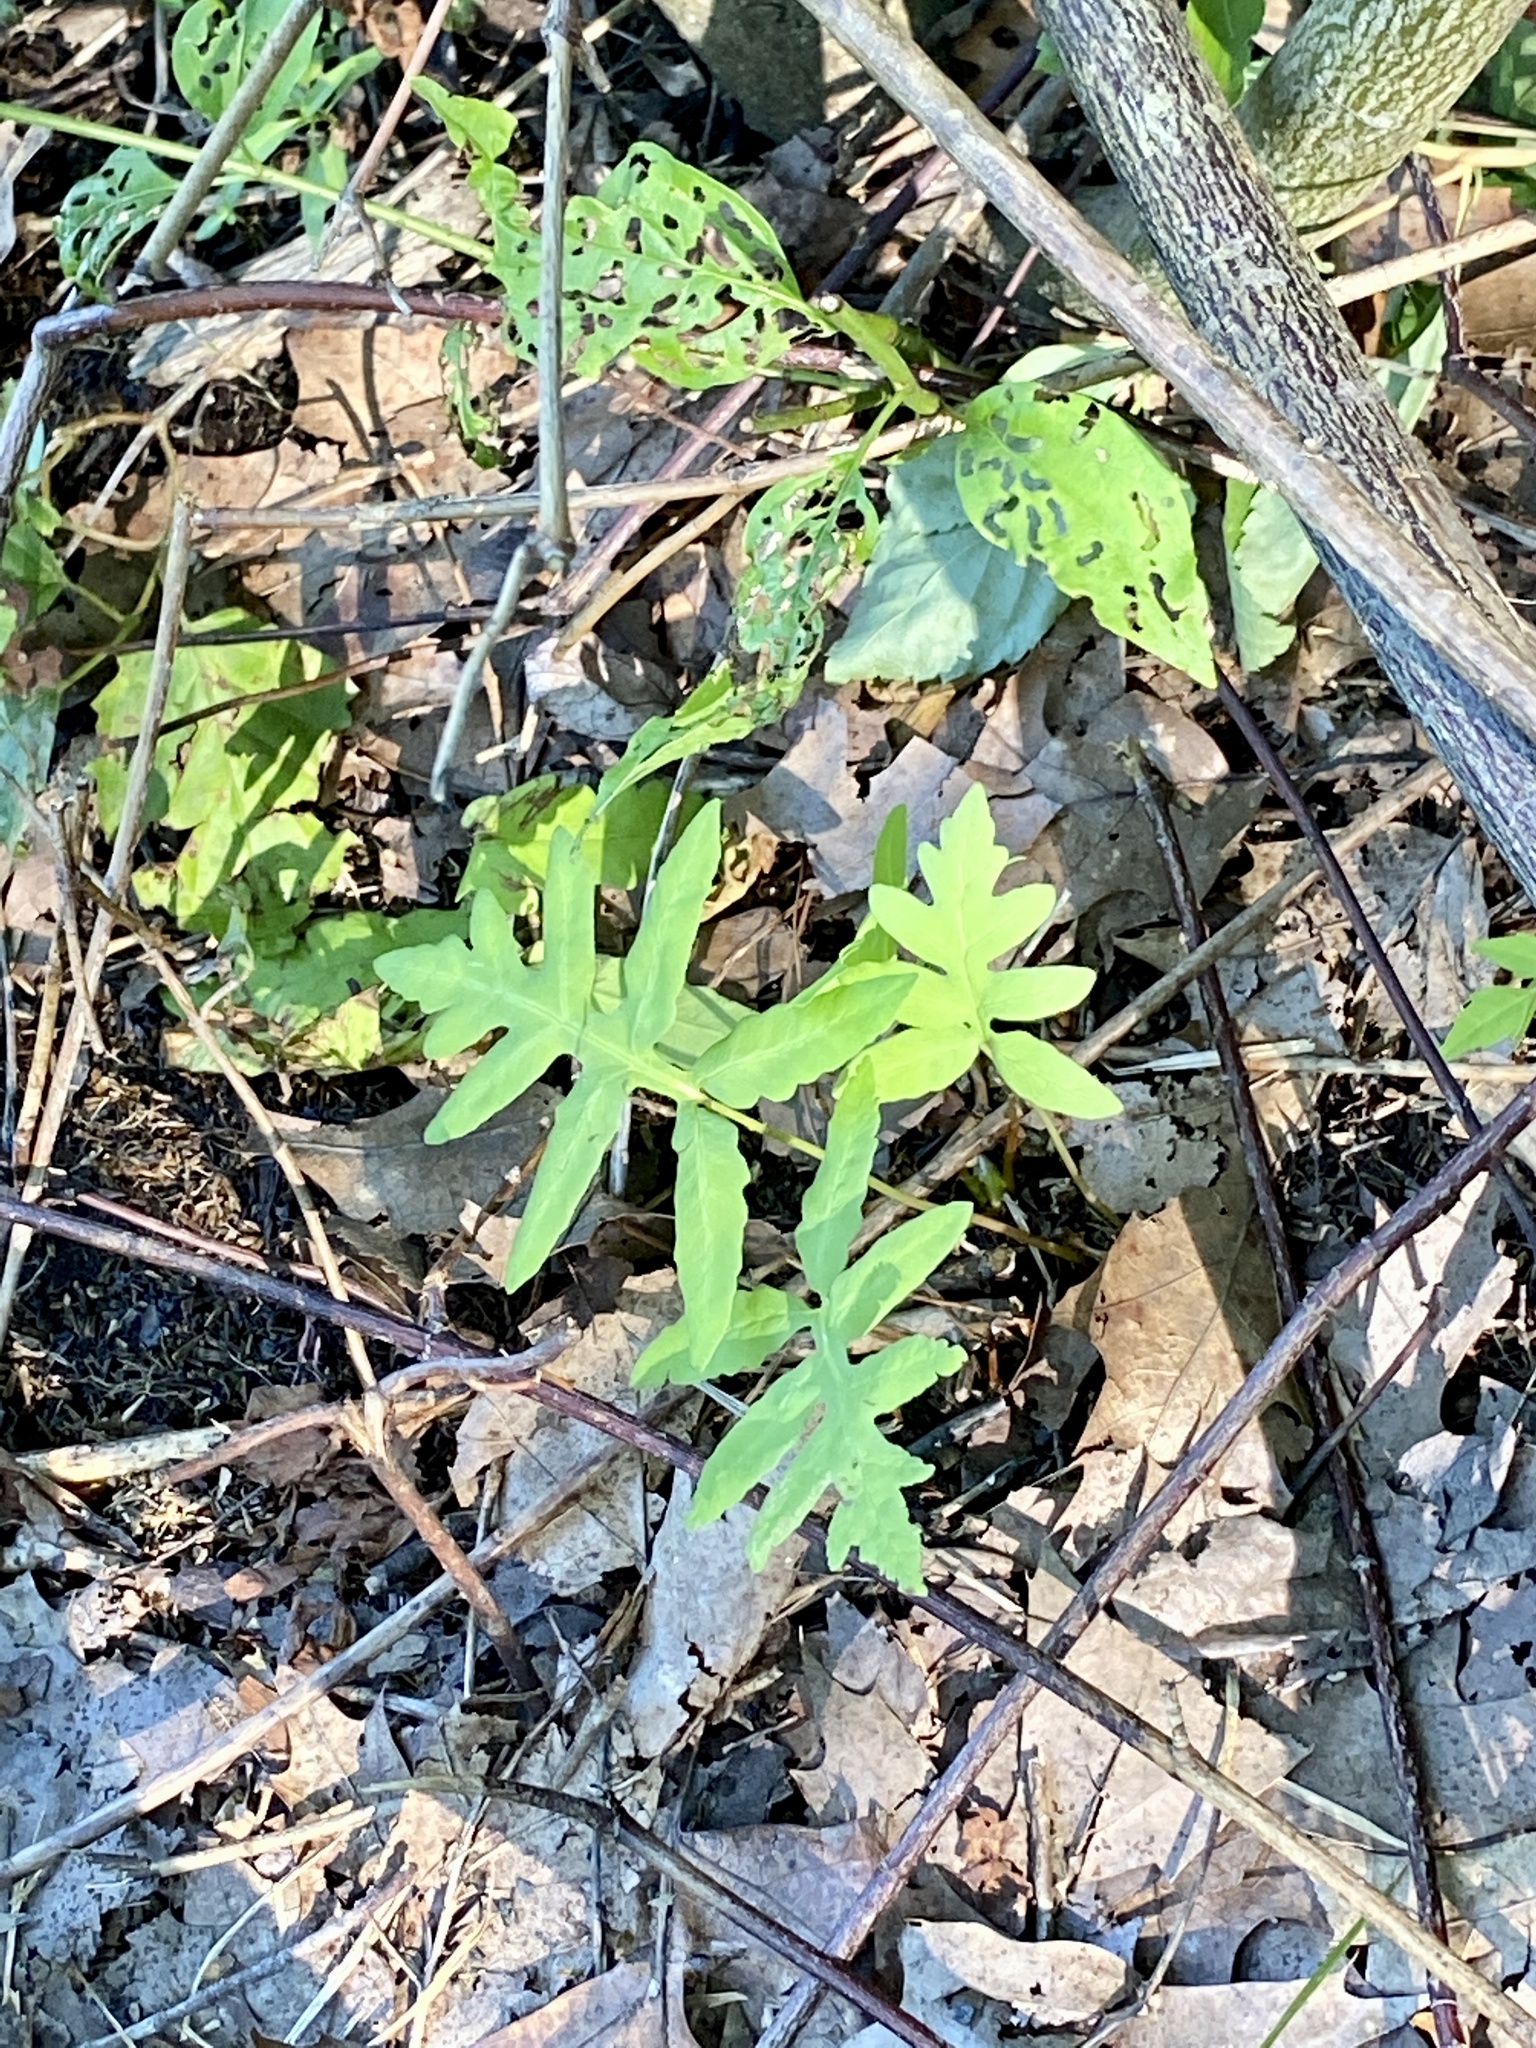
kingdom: Plantae
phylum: Tracheophyta
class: Polypodiopsida
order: Polypodiales
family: Onocleaceae
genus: Onoclea
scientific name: Onoclea sensibilis
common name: Sensitive fern
